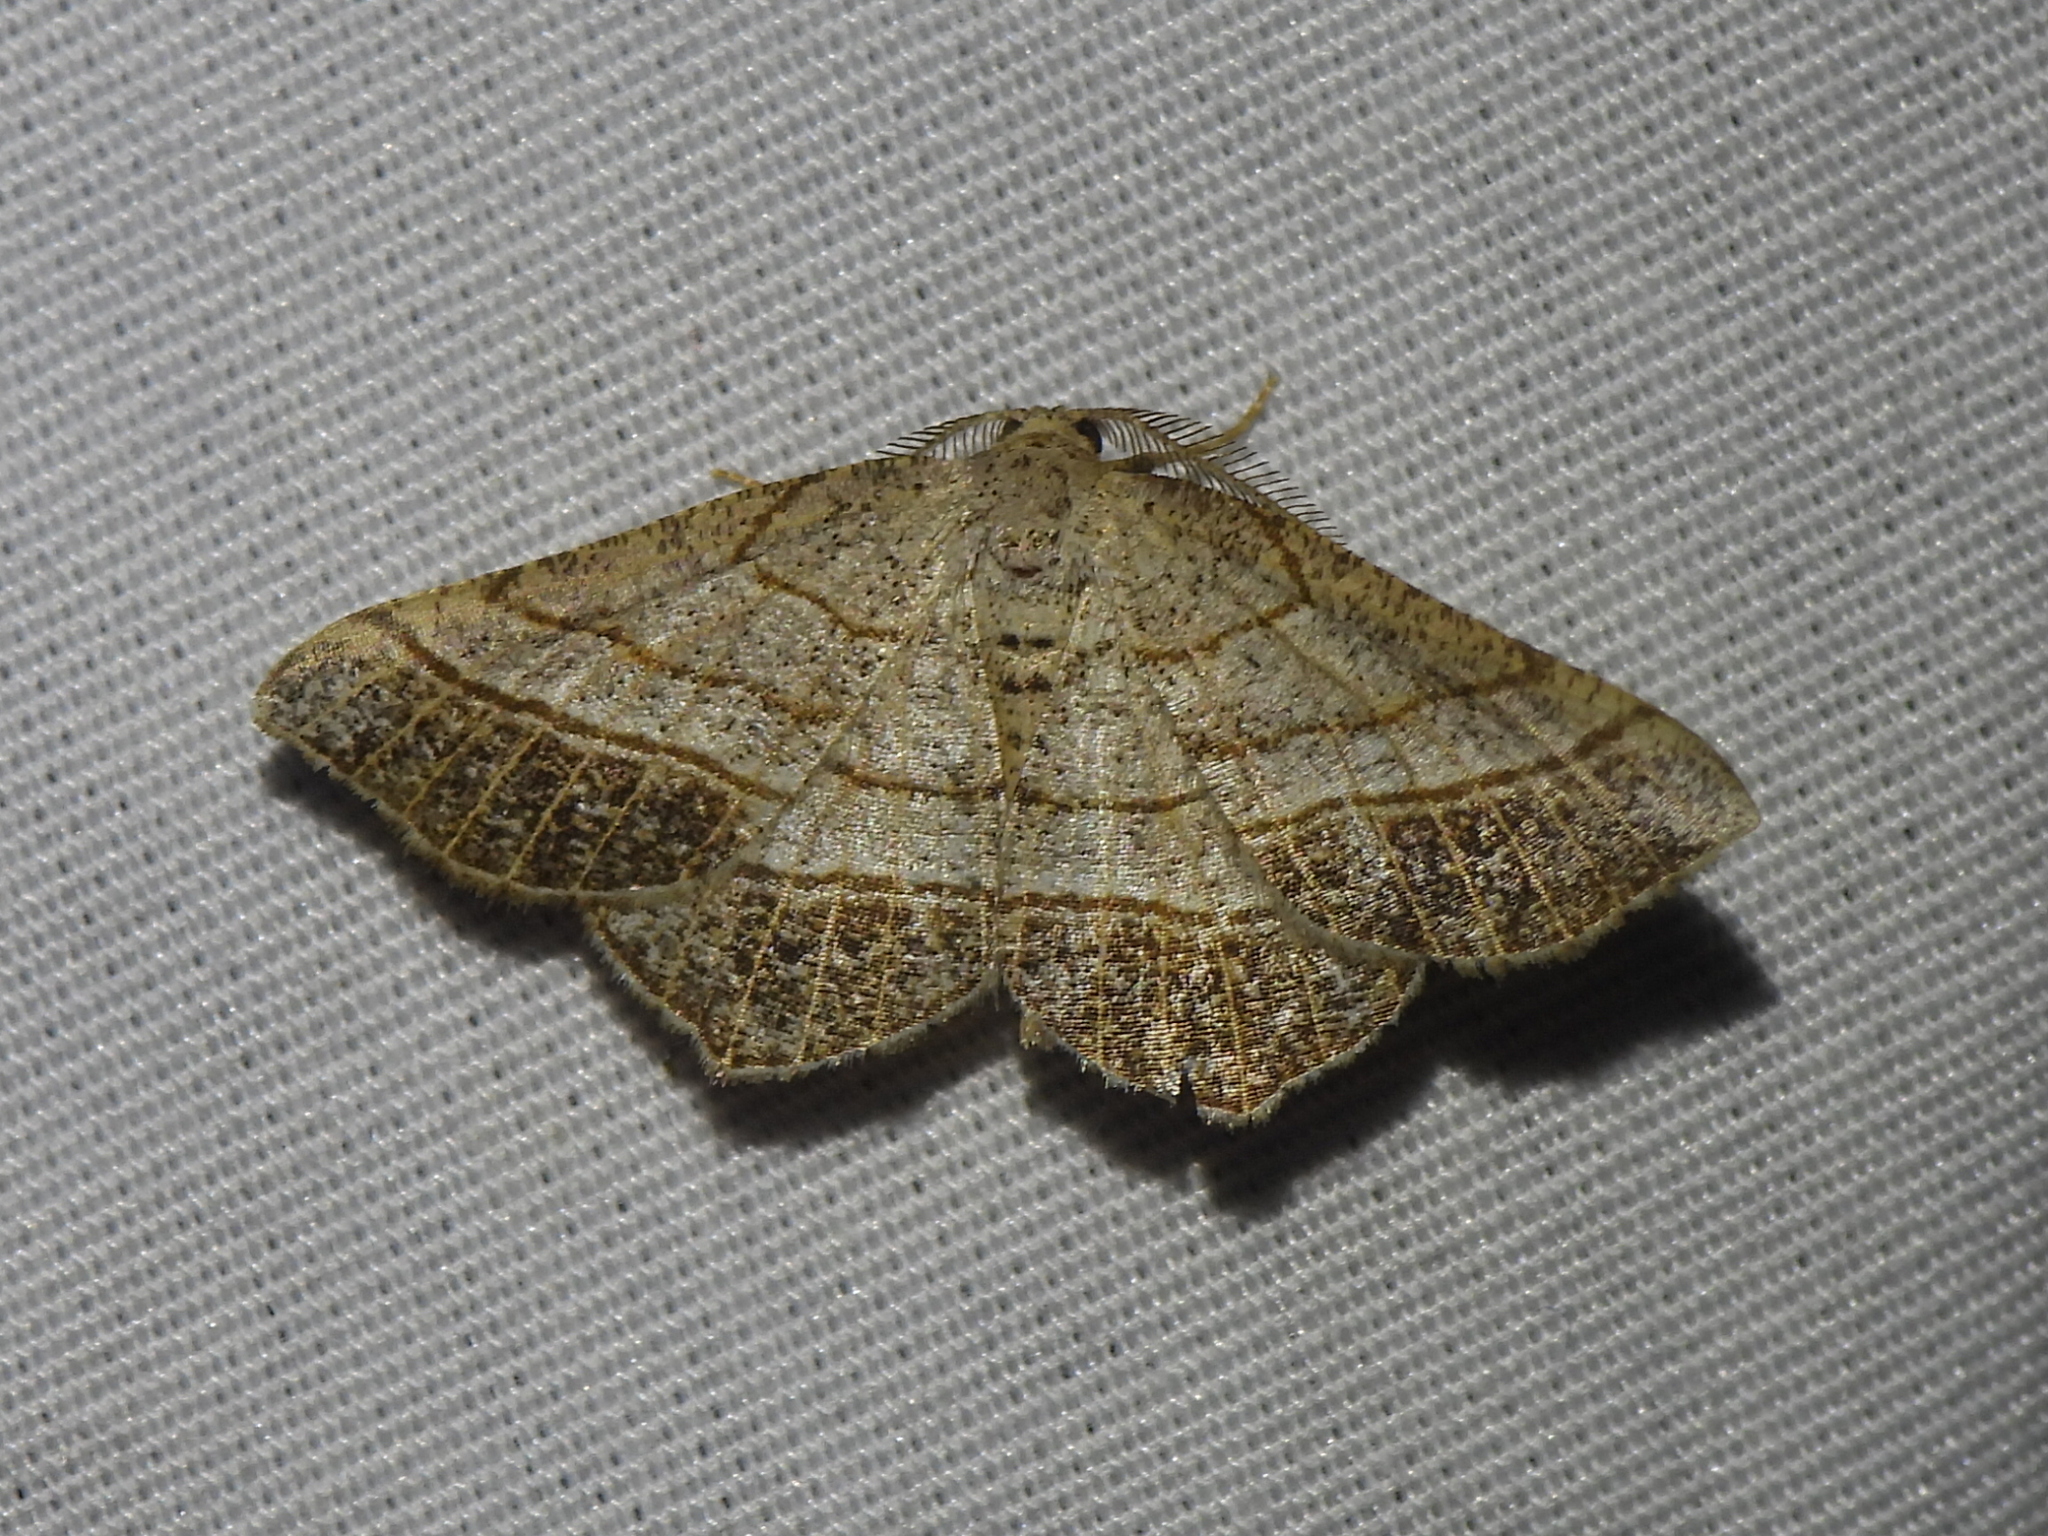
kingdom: Animalia
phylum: Arthropoda
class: Insecta
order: Lepidoptera
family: Geometridae
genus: Eumacaria
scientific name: Eumacaria madopata
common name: Brown-bordered geometer
